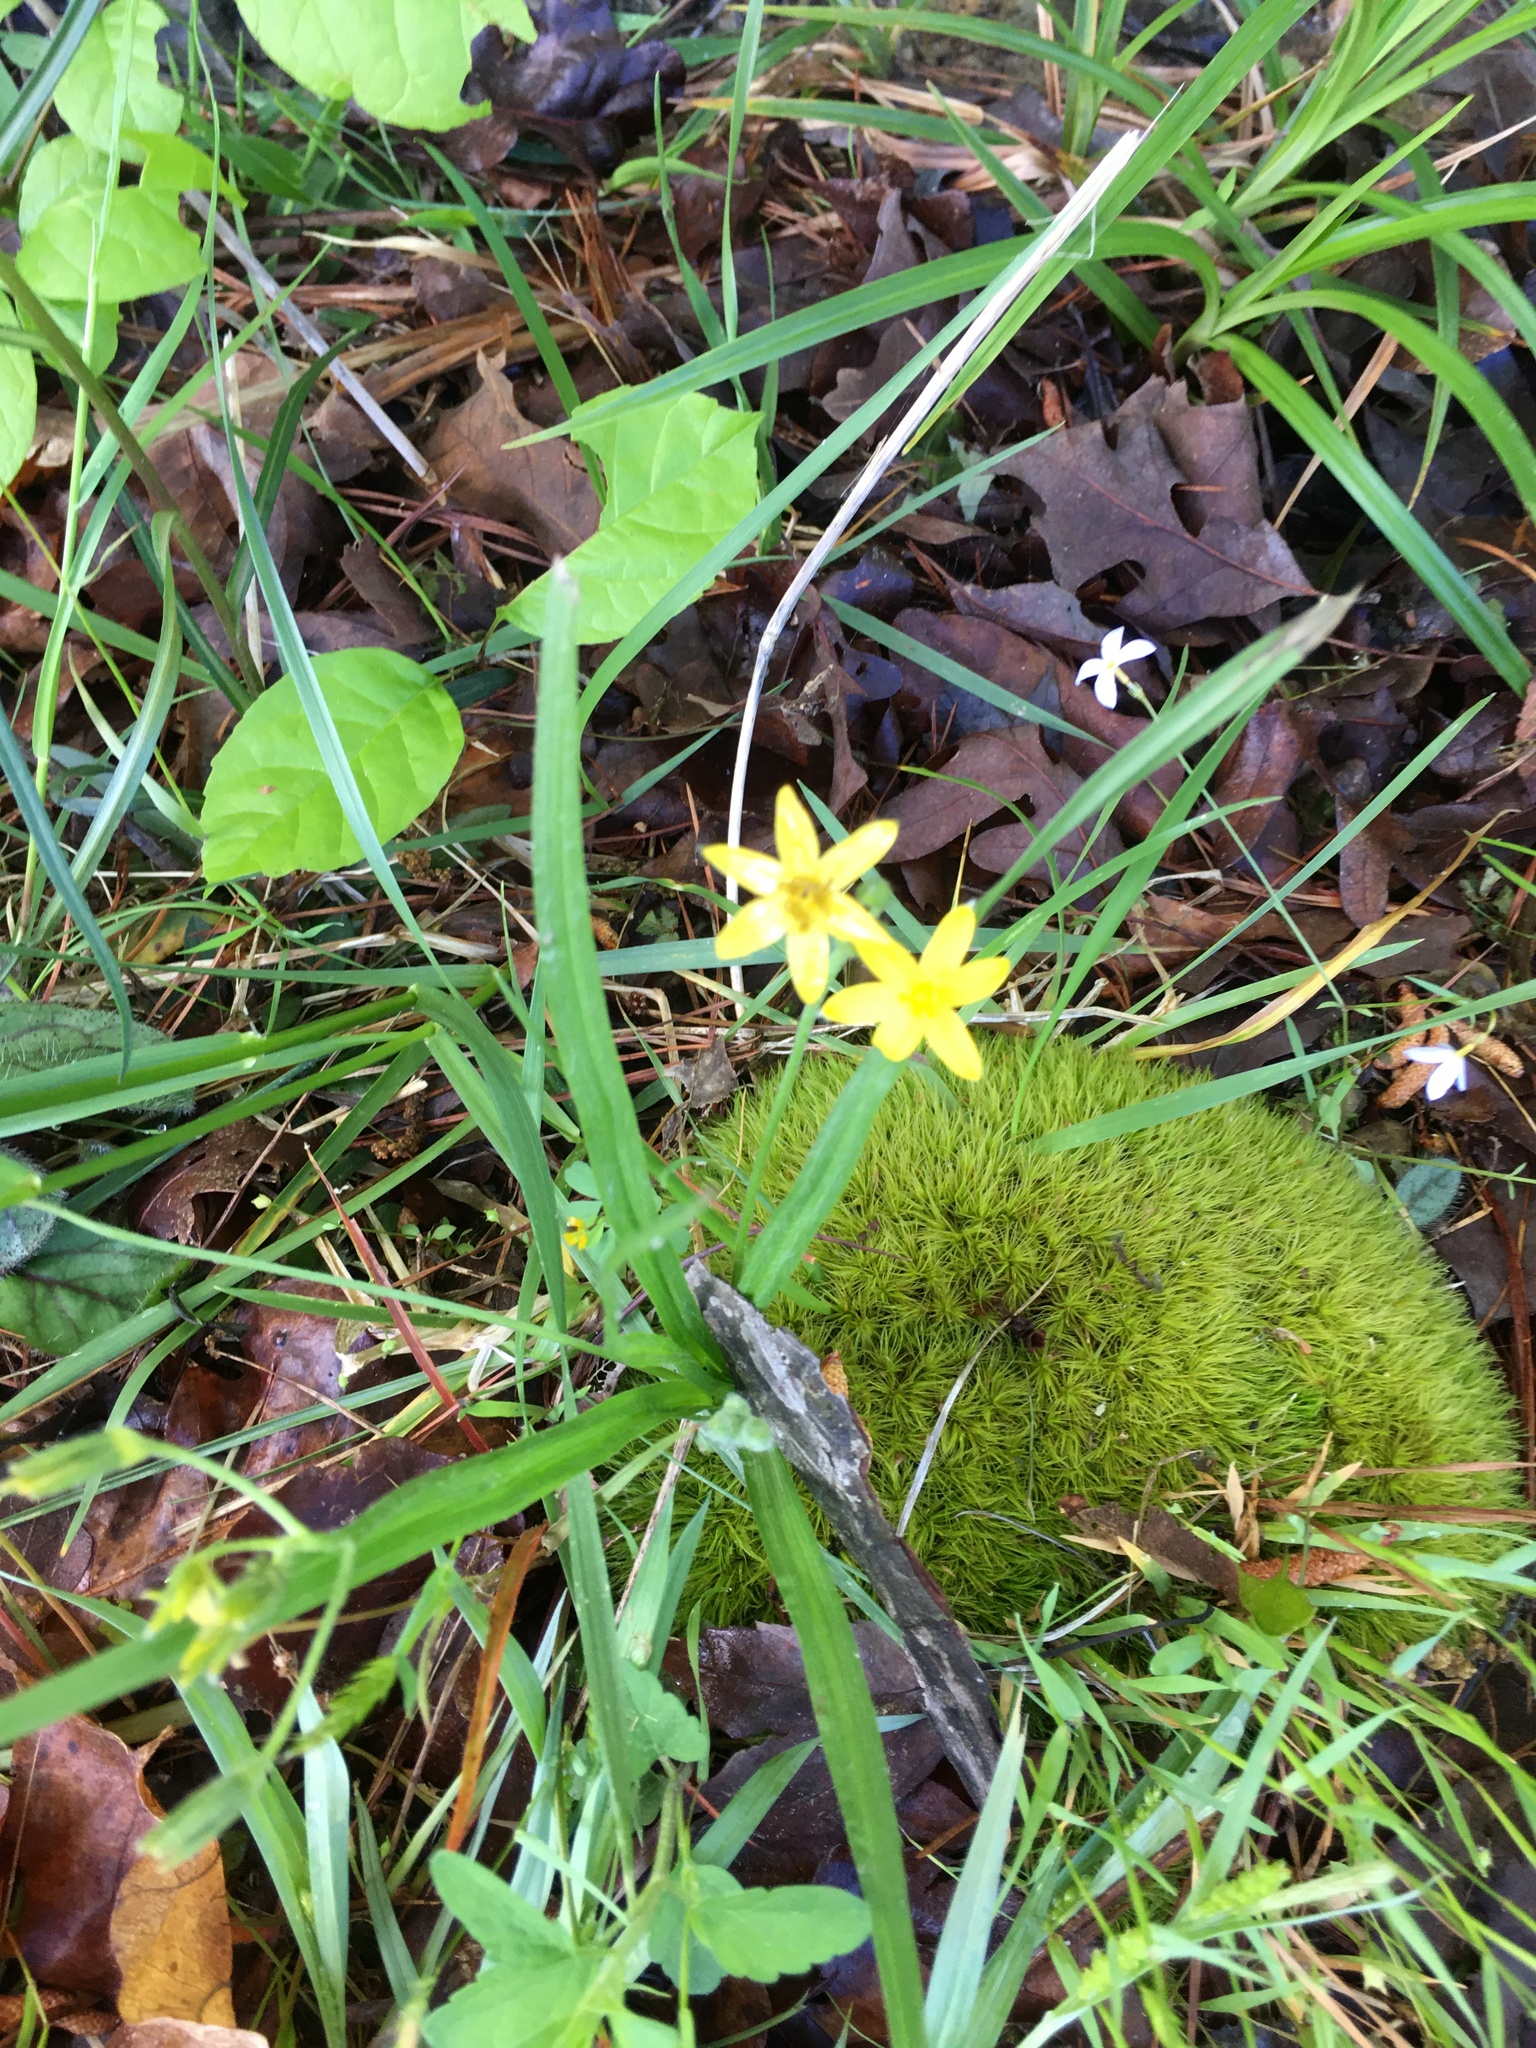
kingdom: Plantae
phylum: Tracheophyta
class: Liliopsida
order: Asparagales
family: Hypoxidaceae
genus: Hypoxis
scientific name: Hypoxis hirsuta
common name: Common goldstar
